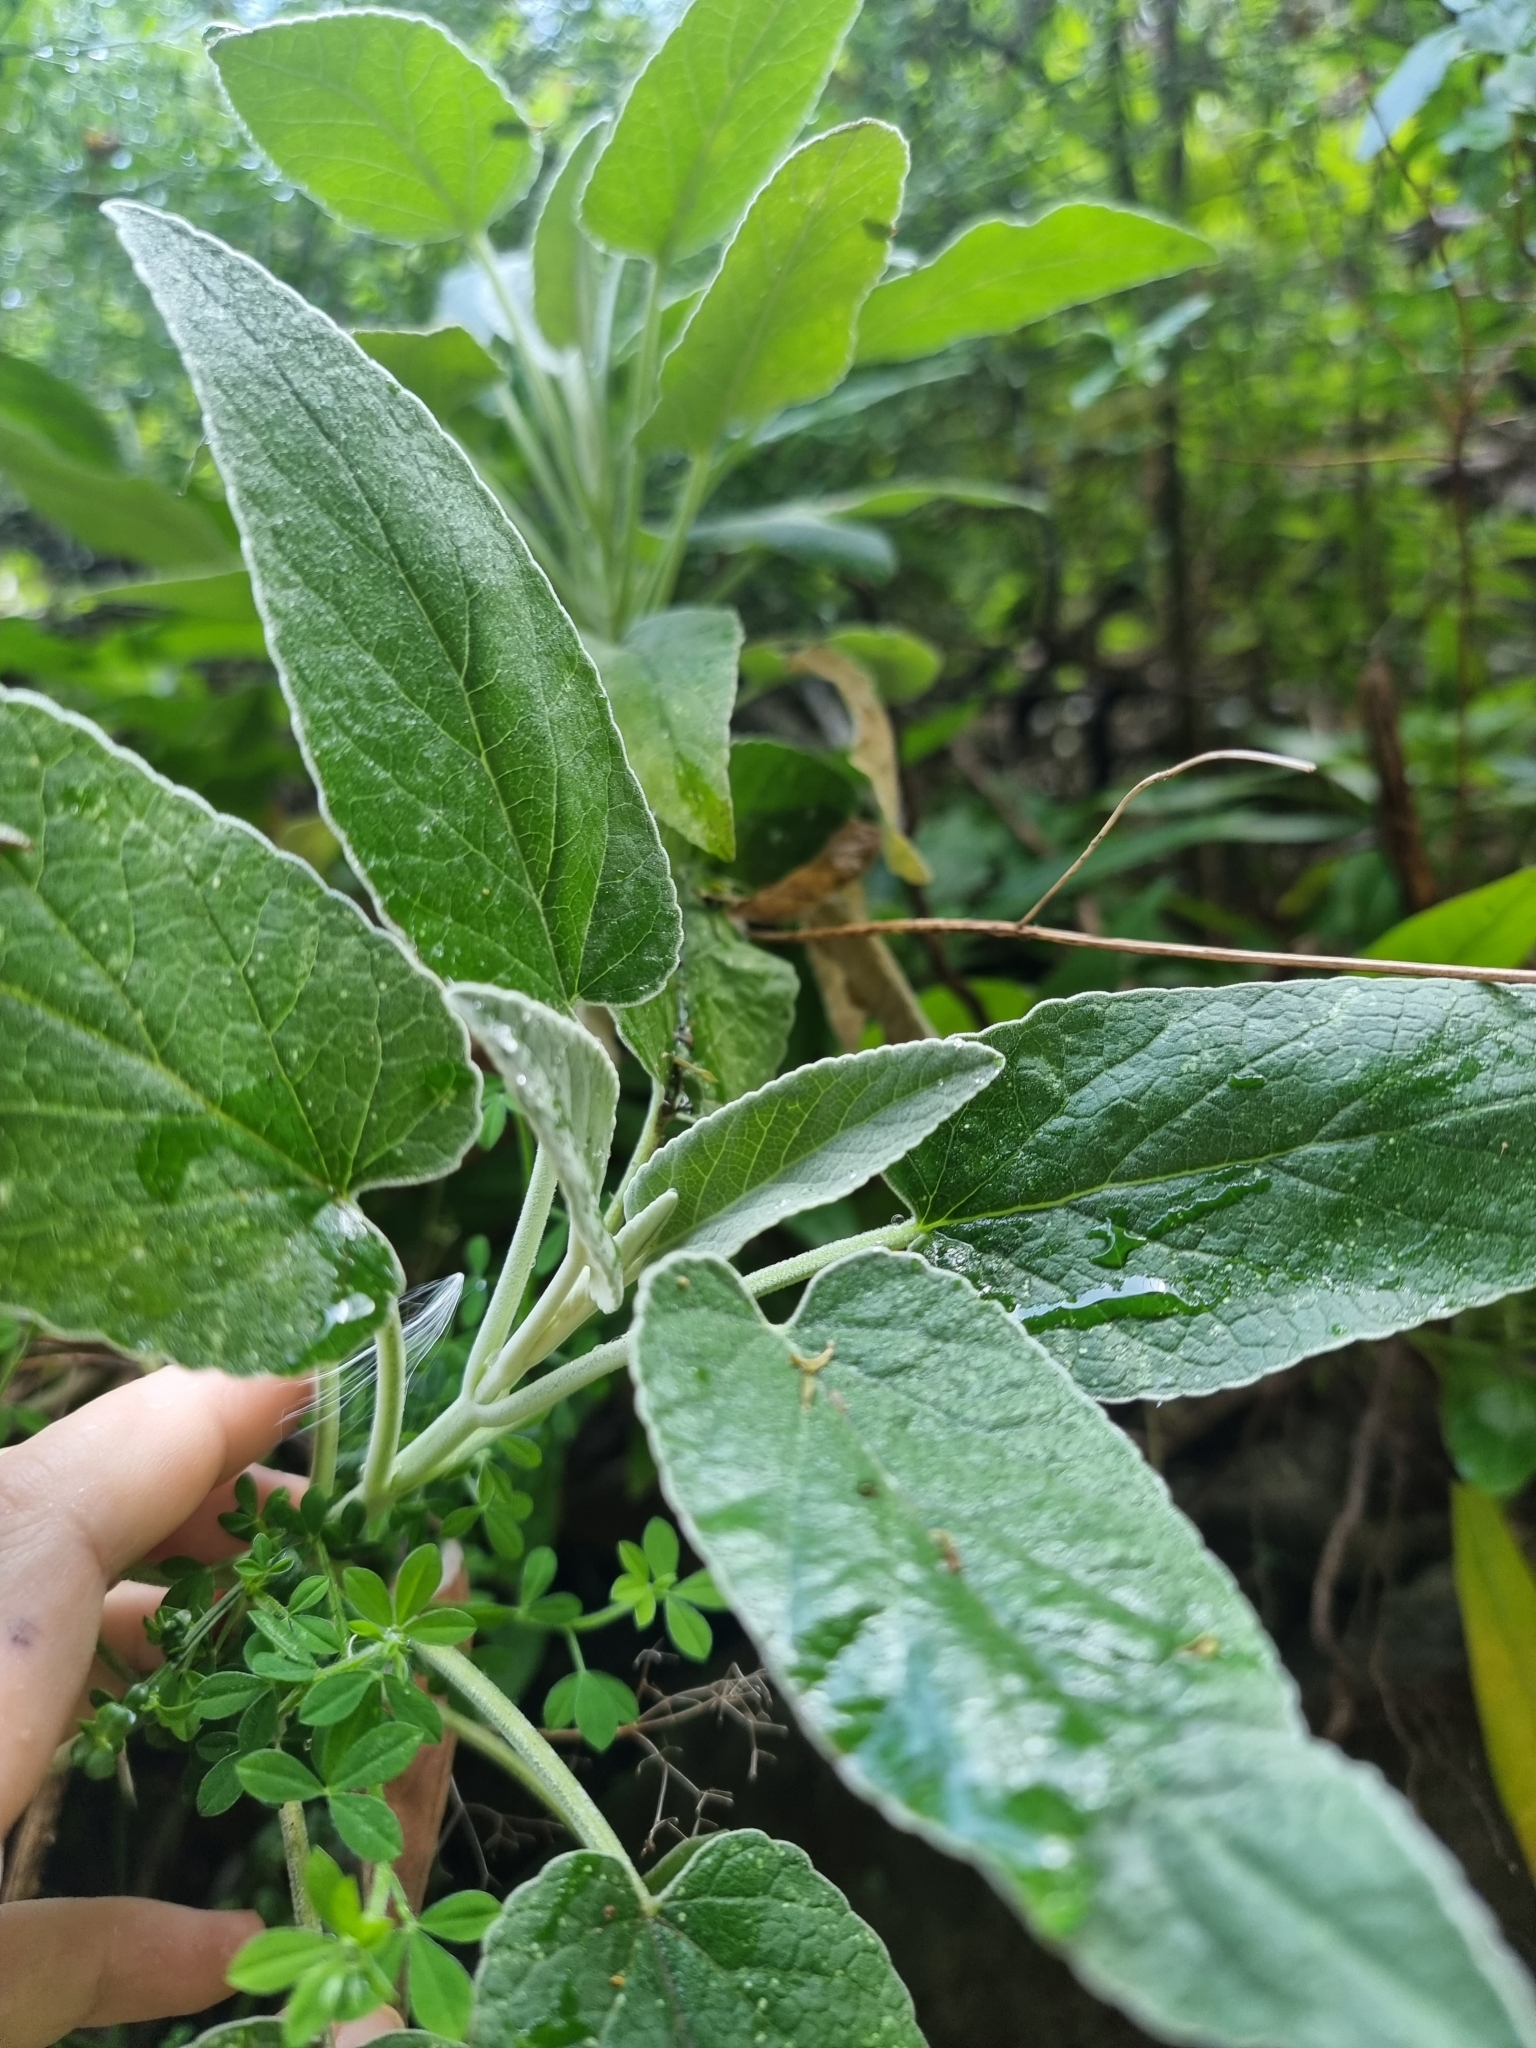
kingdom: Plantae
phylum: Tracheophyta
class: Magnoliopsida
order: Lamiales
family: Lamiaceae
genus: Sideritis
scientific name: Sideritis candicans
